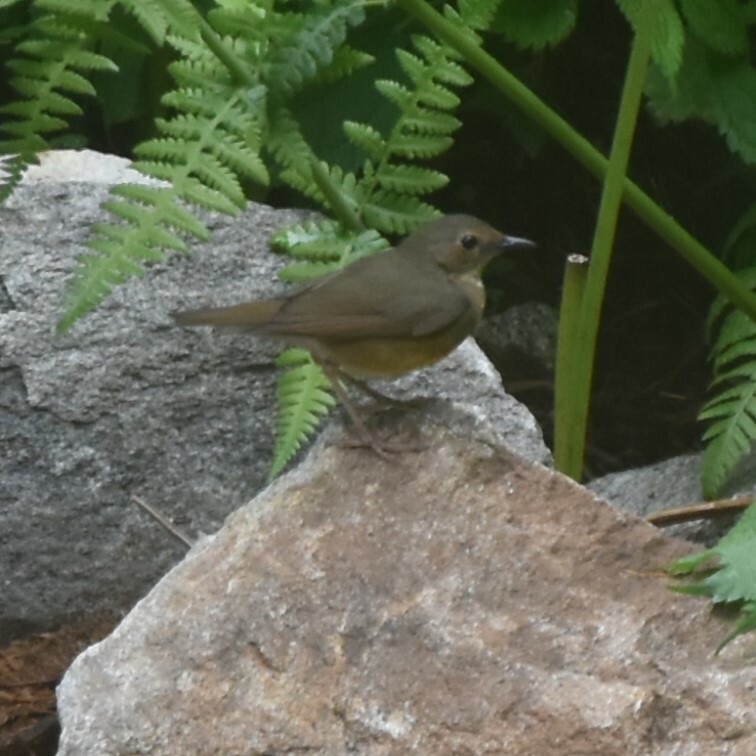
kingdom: Animalia
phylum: Chordata
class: Aves
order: Passeriformes
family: Muscicapidae
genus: Luscinia
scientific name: Luscinia brunnea
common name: Indian blue robin
